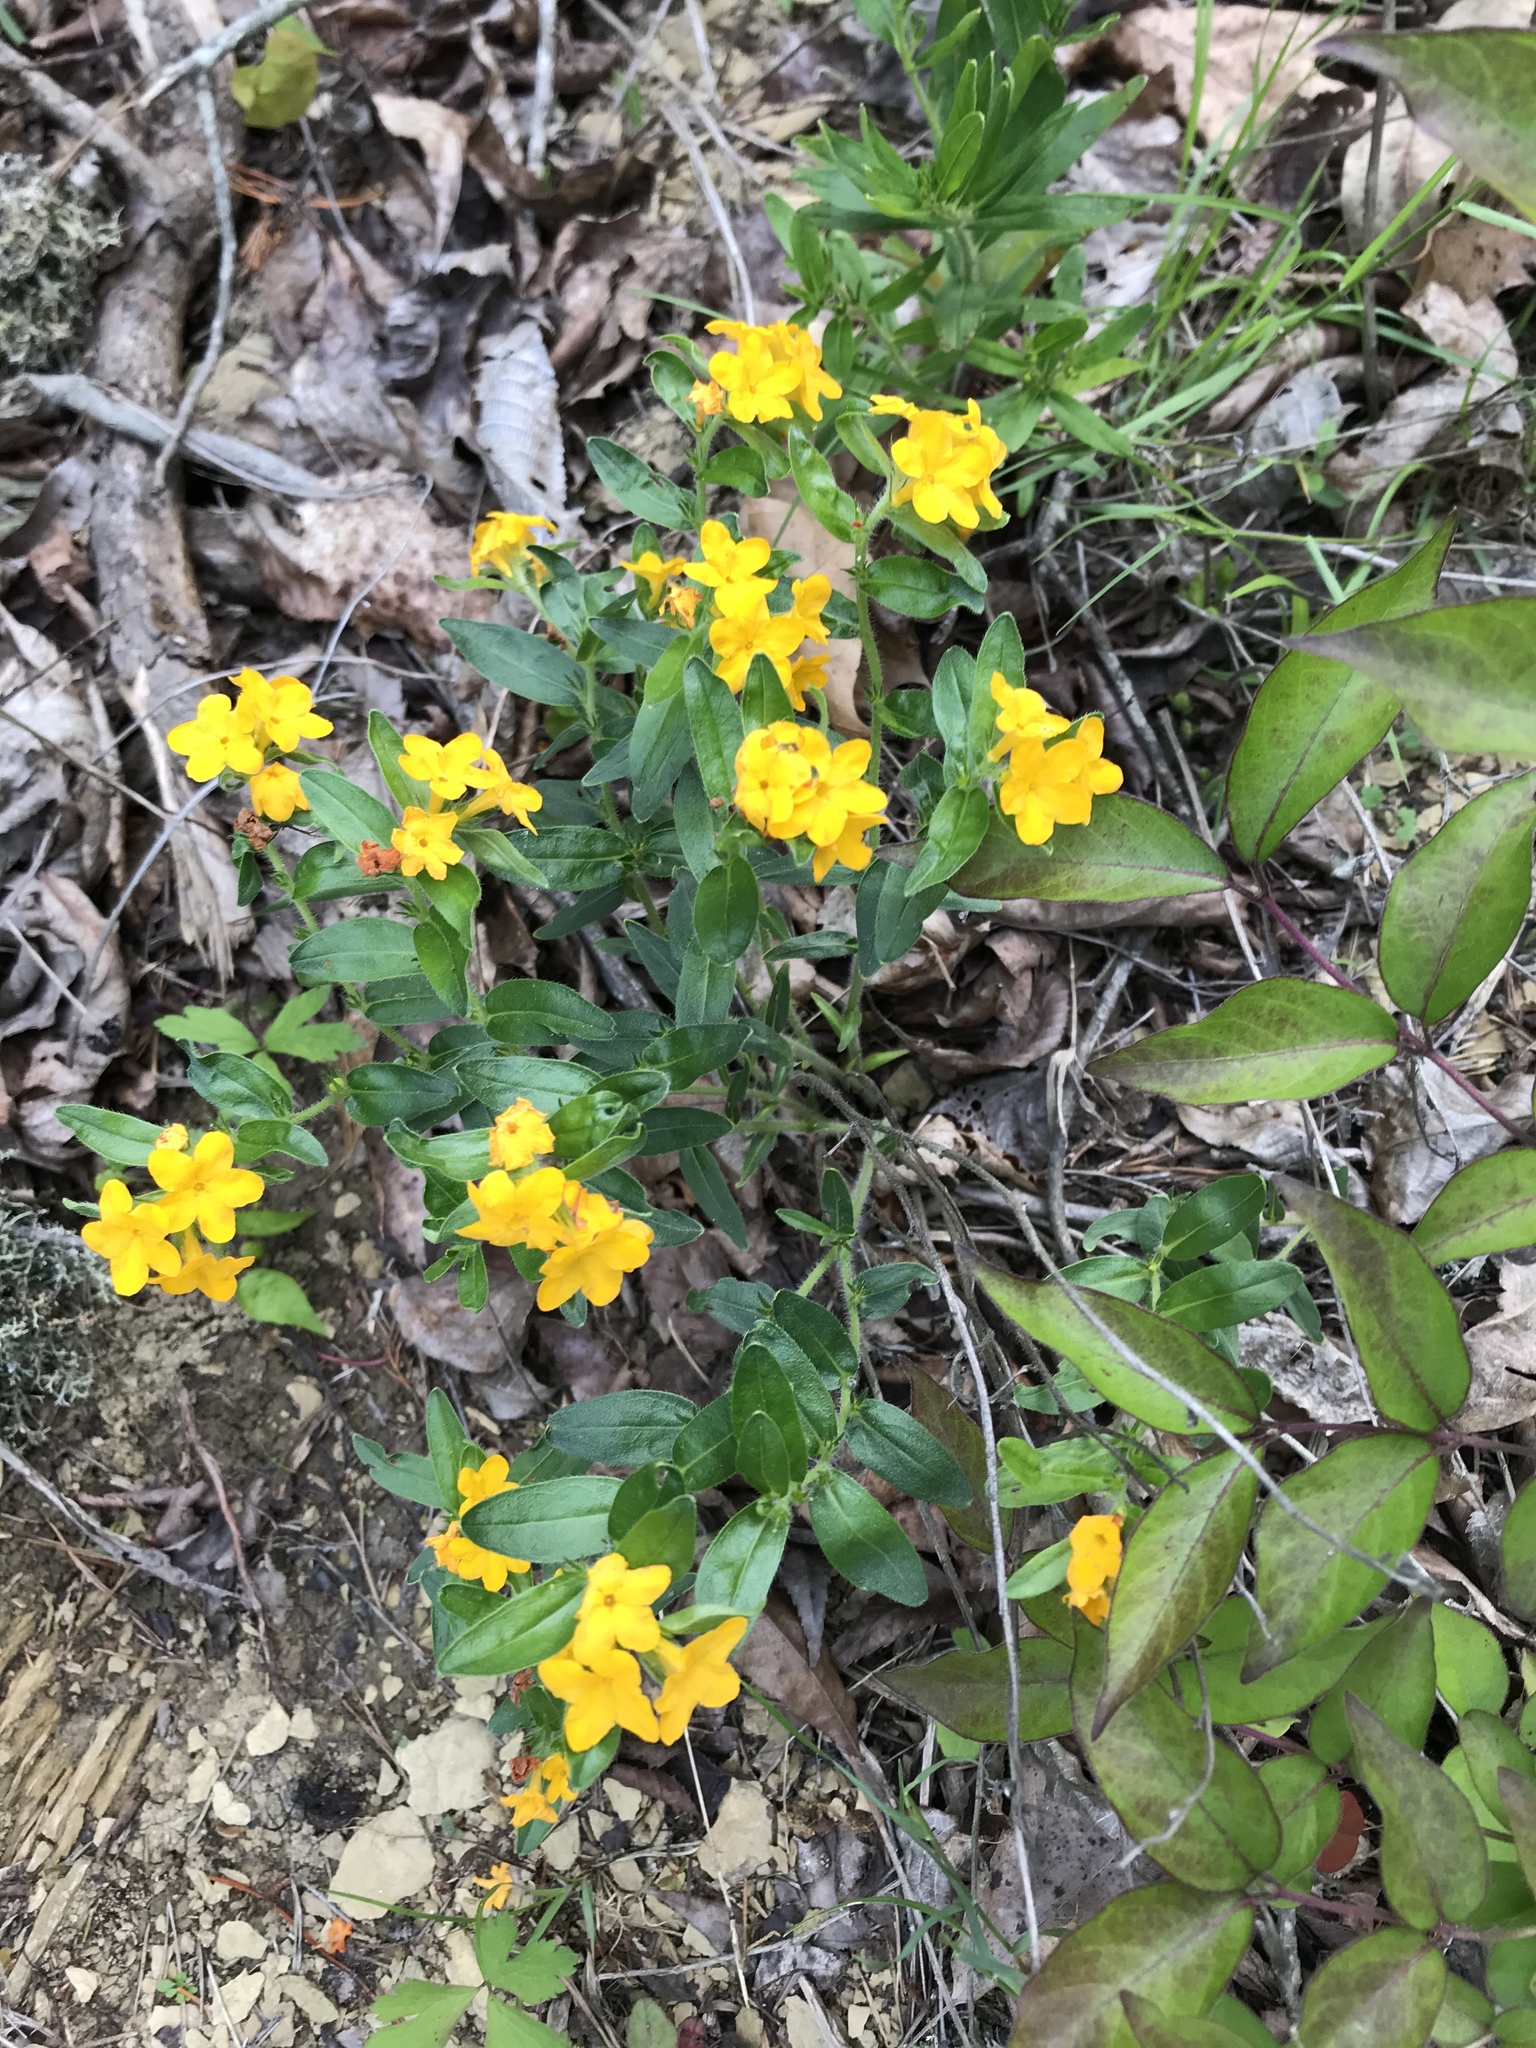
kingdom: Plantae
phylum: Tracheophyta
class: Magnoliopsida
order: Boraginales
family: Boraginaceae
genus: Lithospermum
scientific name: Lithospermum canescens
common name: Hoary puccoon
